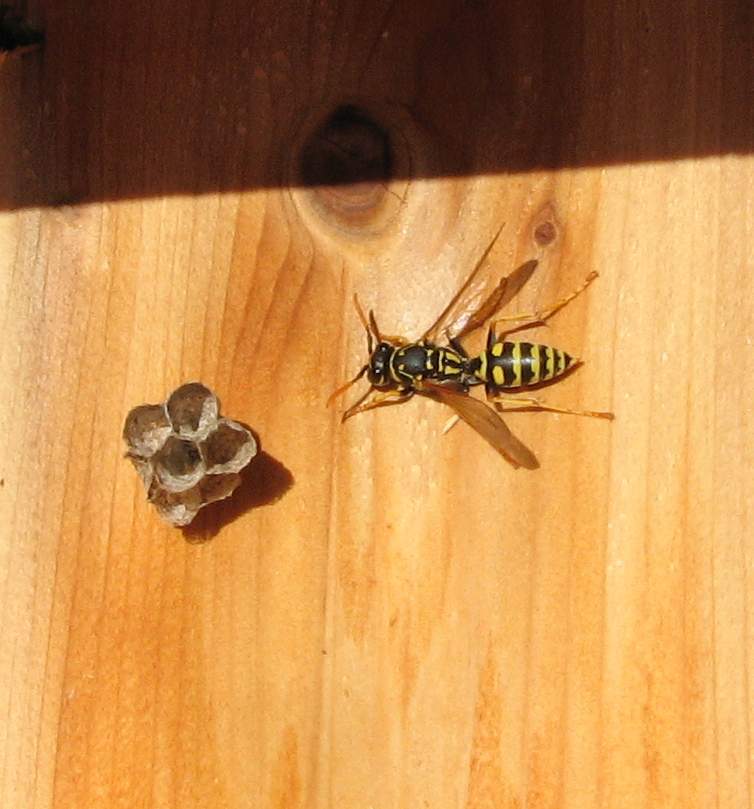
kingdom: Animalia
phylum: Arthropoda
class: Insecta
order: Hymenoptera
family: Eumenidae
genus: Polistes
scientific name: Polistes dominula
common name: Paper wasp
